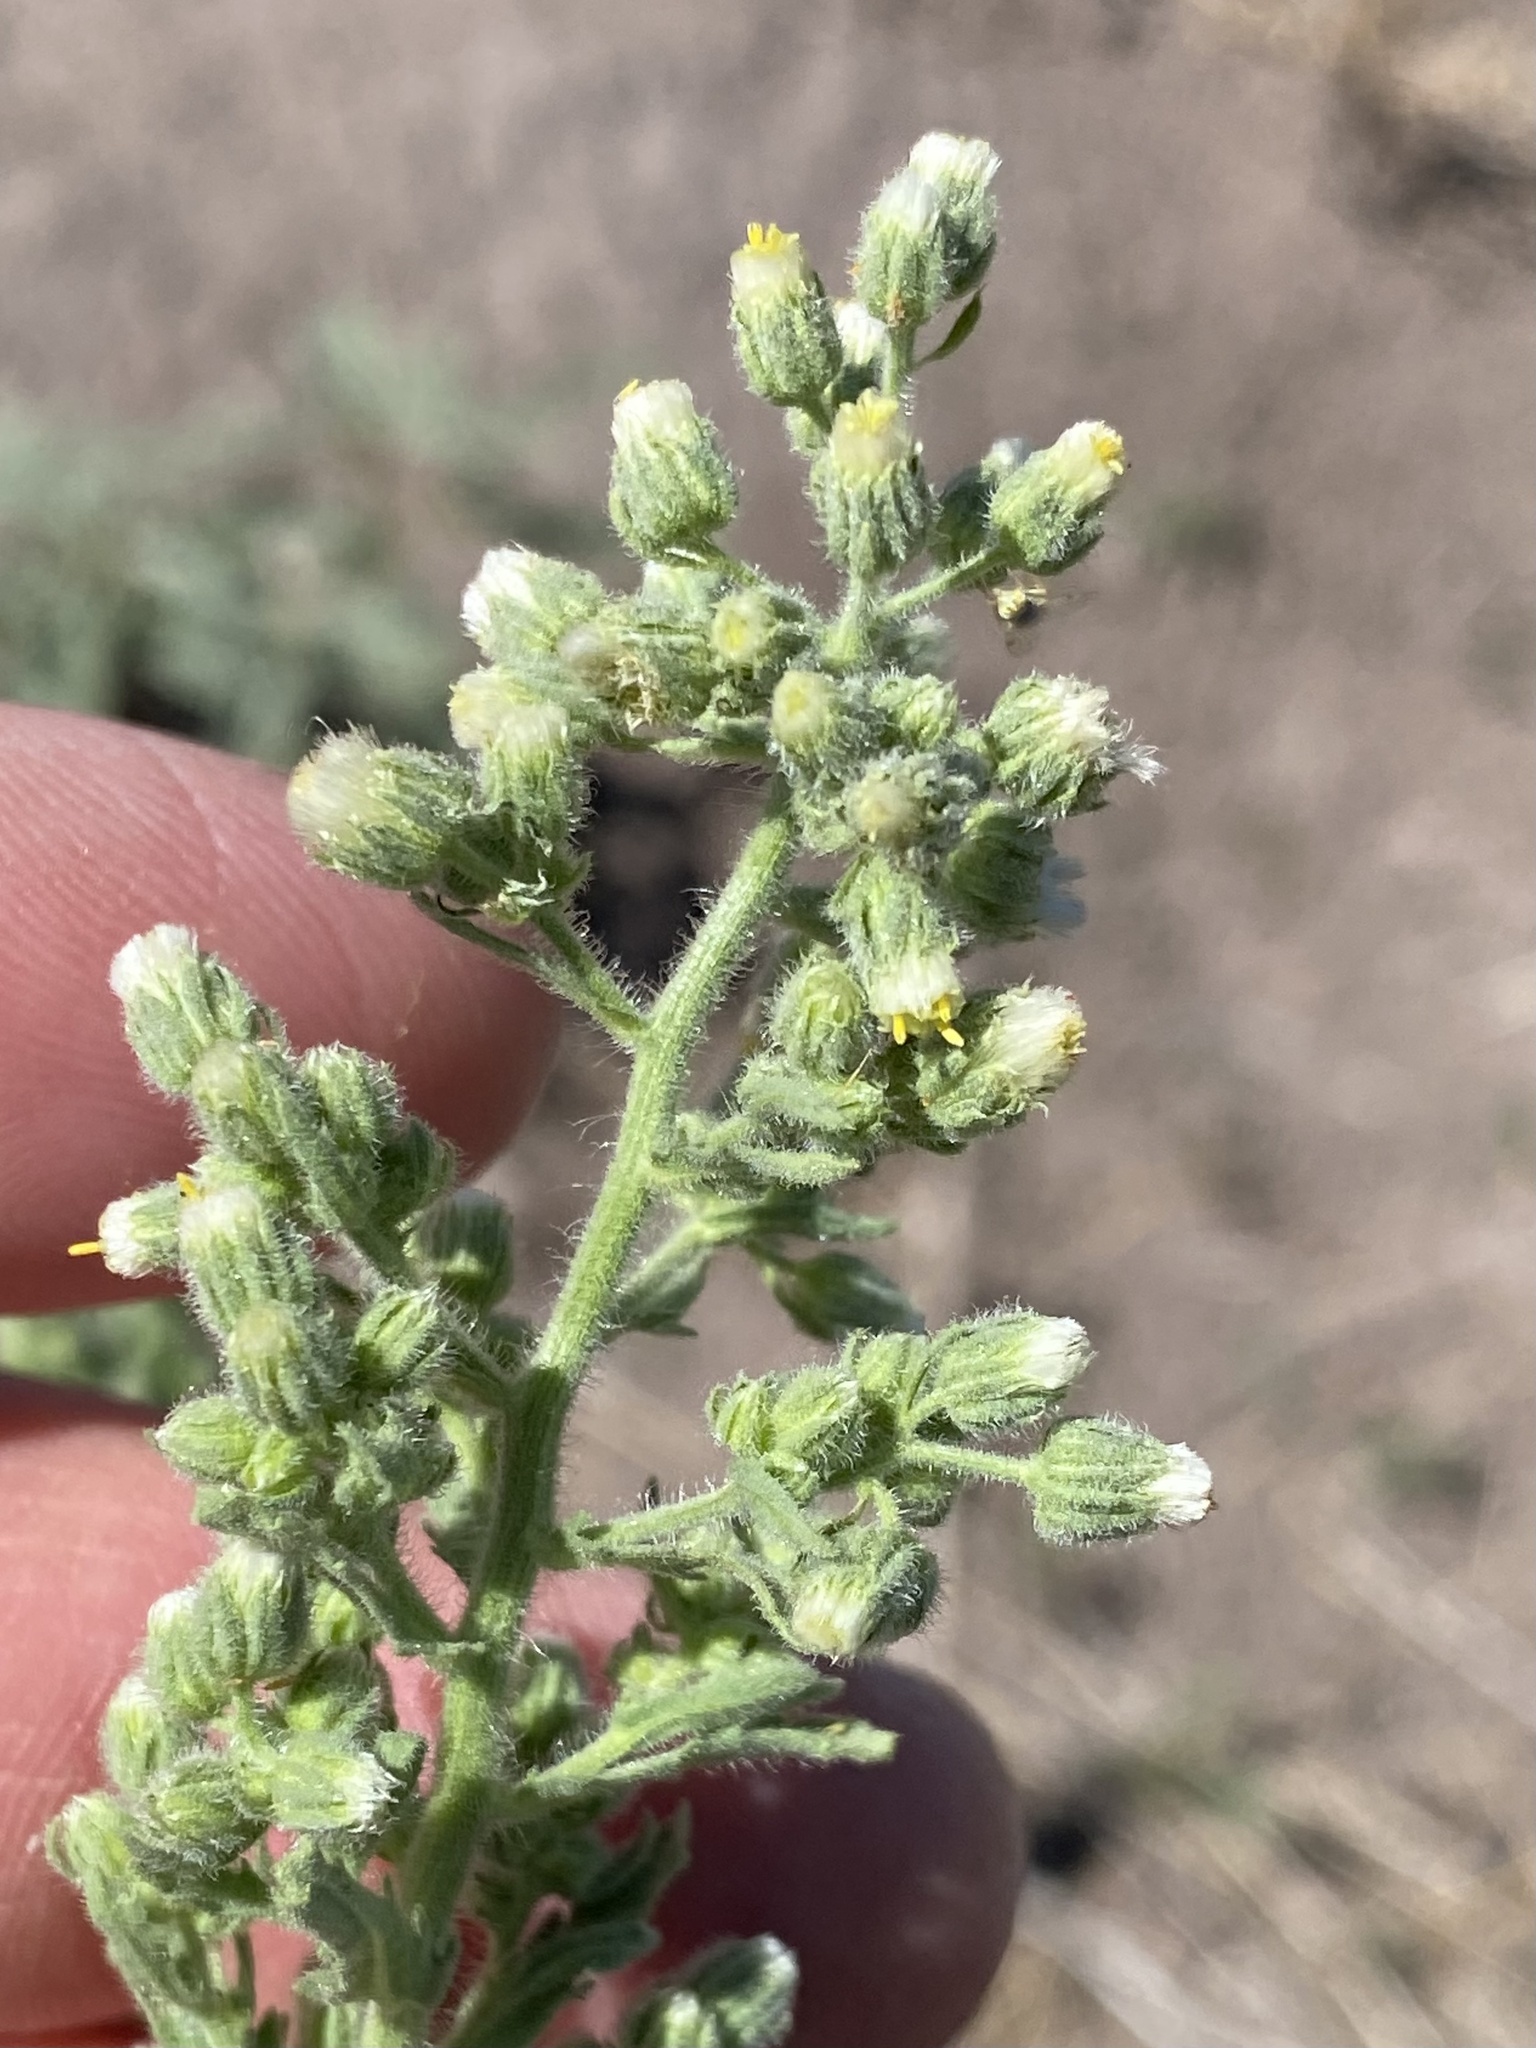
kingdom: Plantae
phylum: Tracheophyta
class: Magnoliopsida
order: Asterales
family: Asteraceae
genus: Laennecia
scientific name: Laennecia coulteri
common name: Coulter's woolwort
